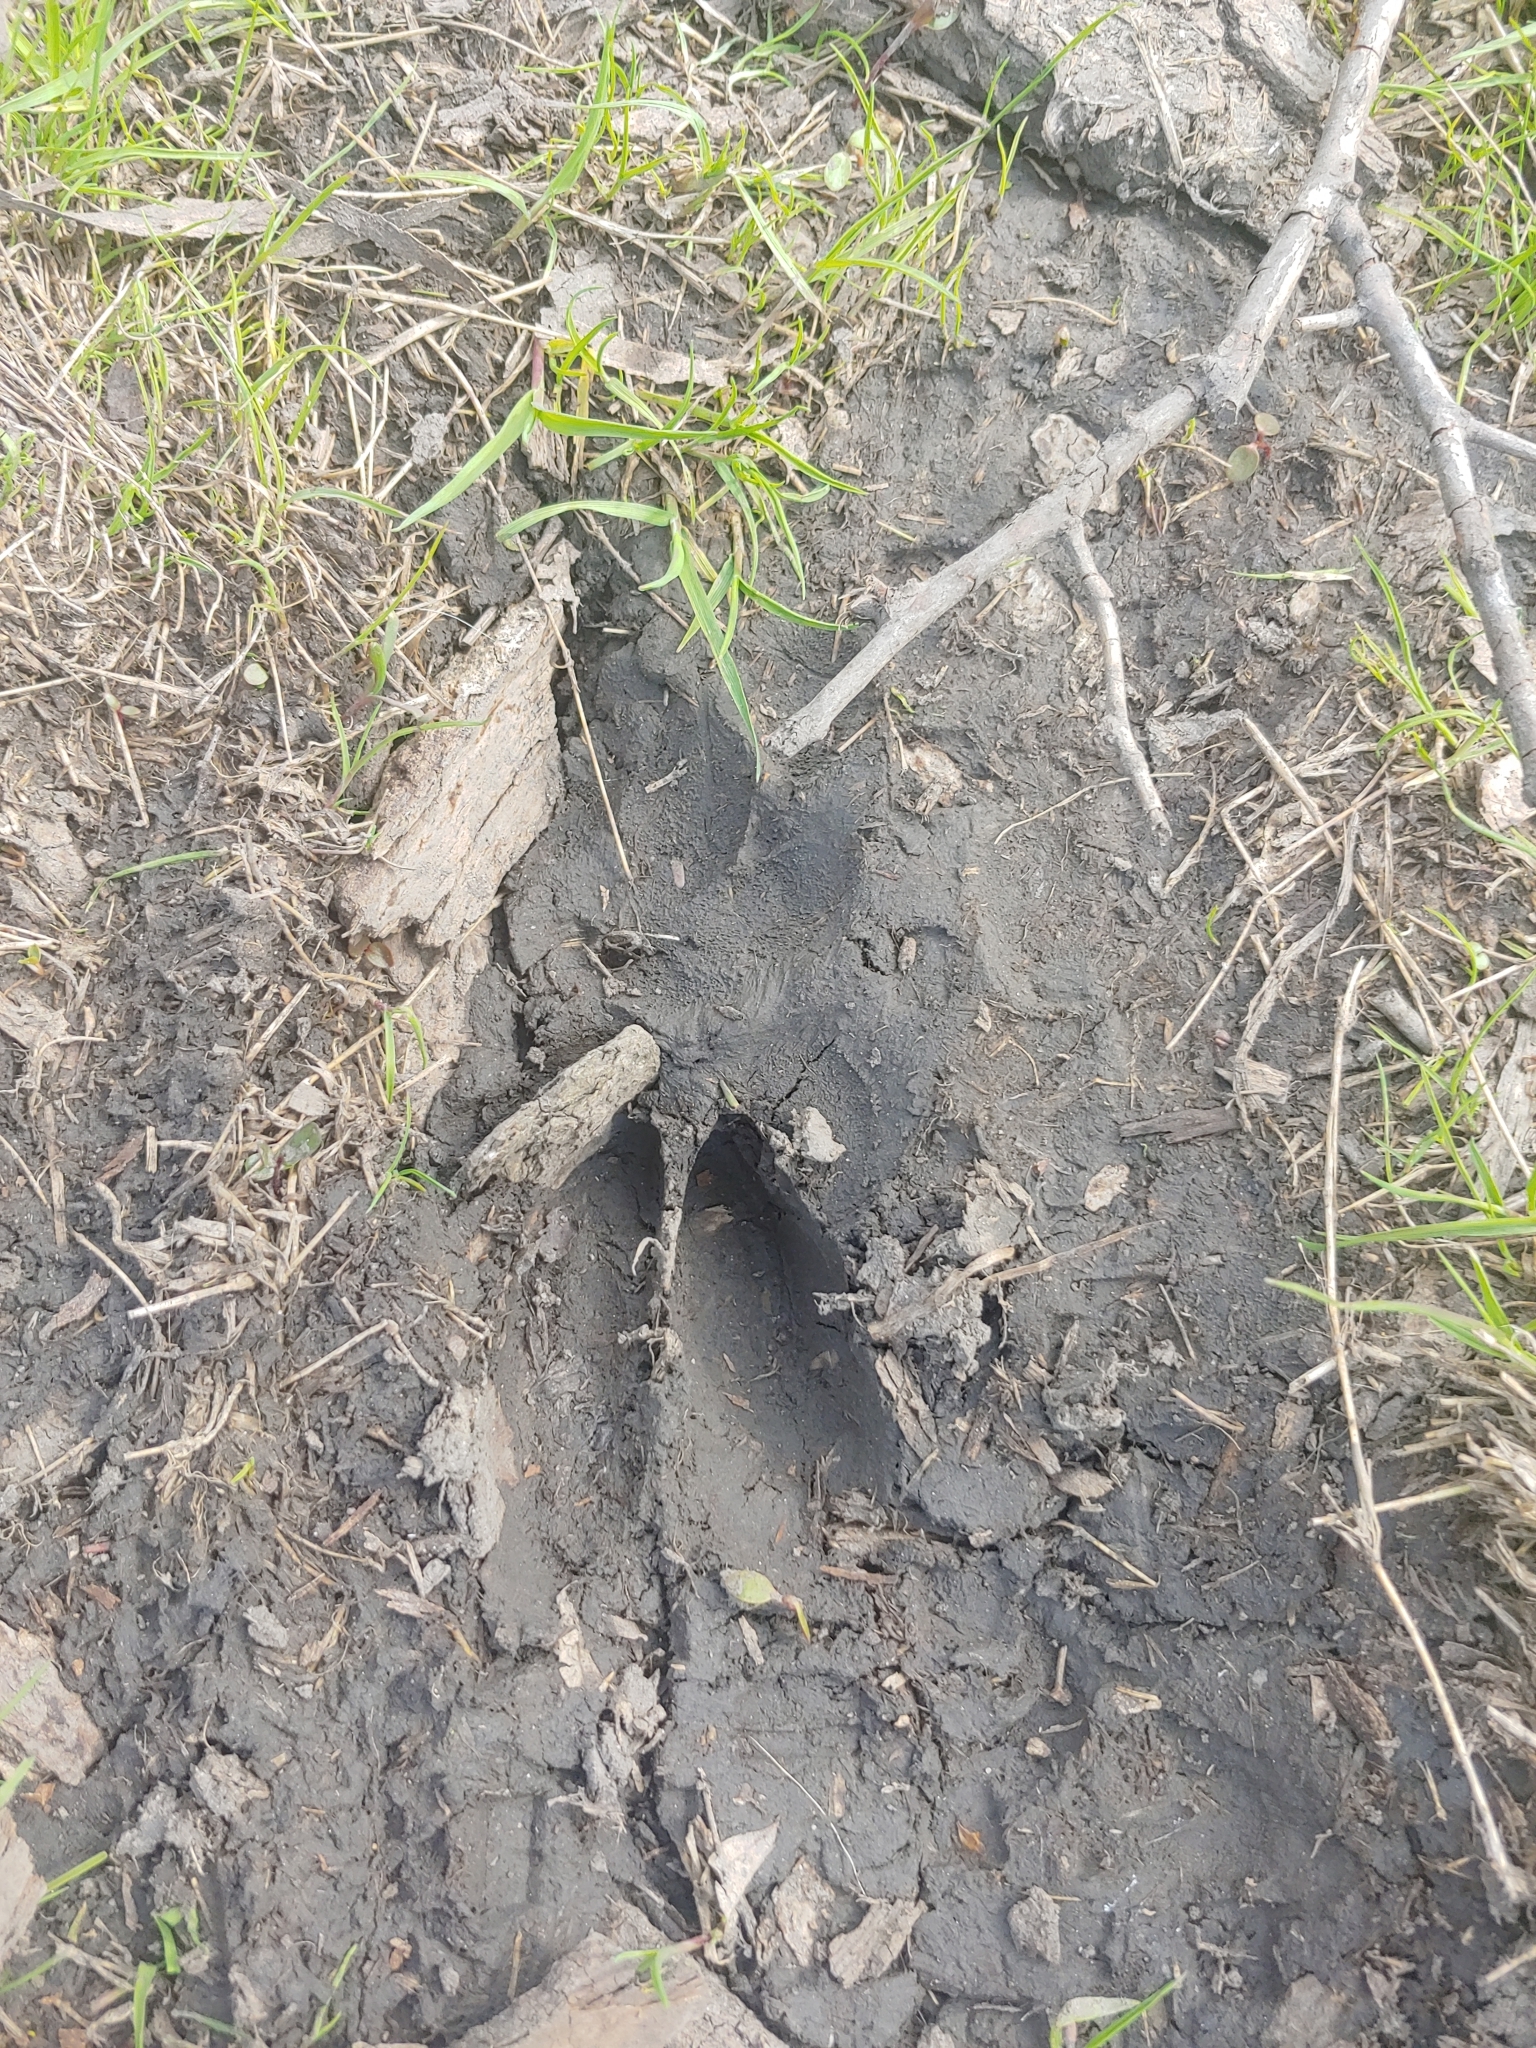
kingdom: Animalia
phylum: Chordata
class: Mammalia
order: Artiodactyla
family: Cervidae
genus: Odocoileus
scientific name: Odocoileus virginianus
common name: White-tailed deer
